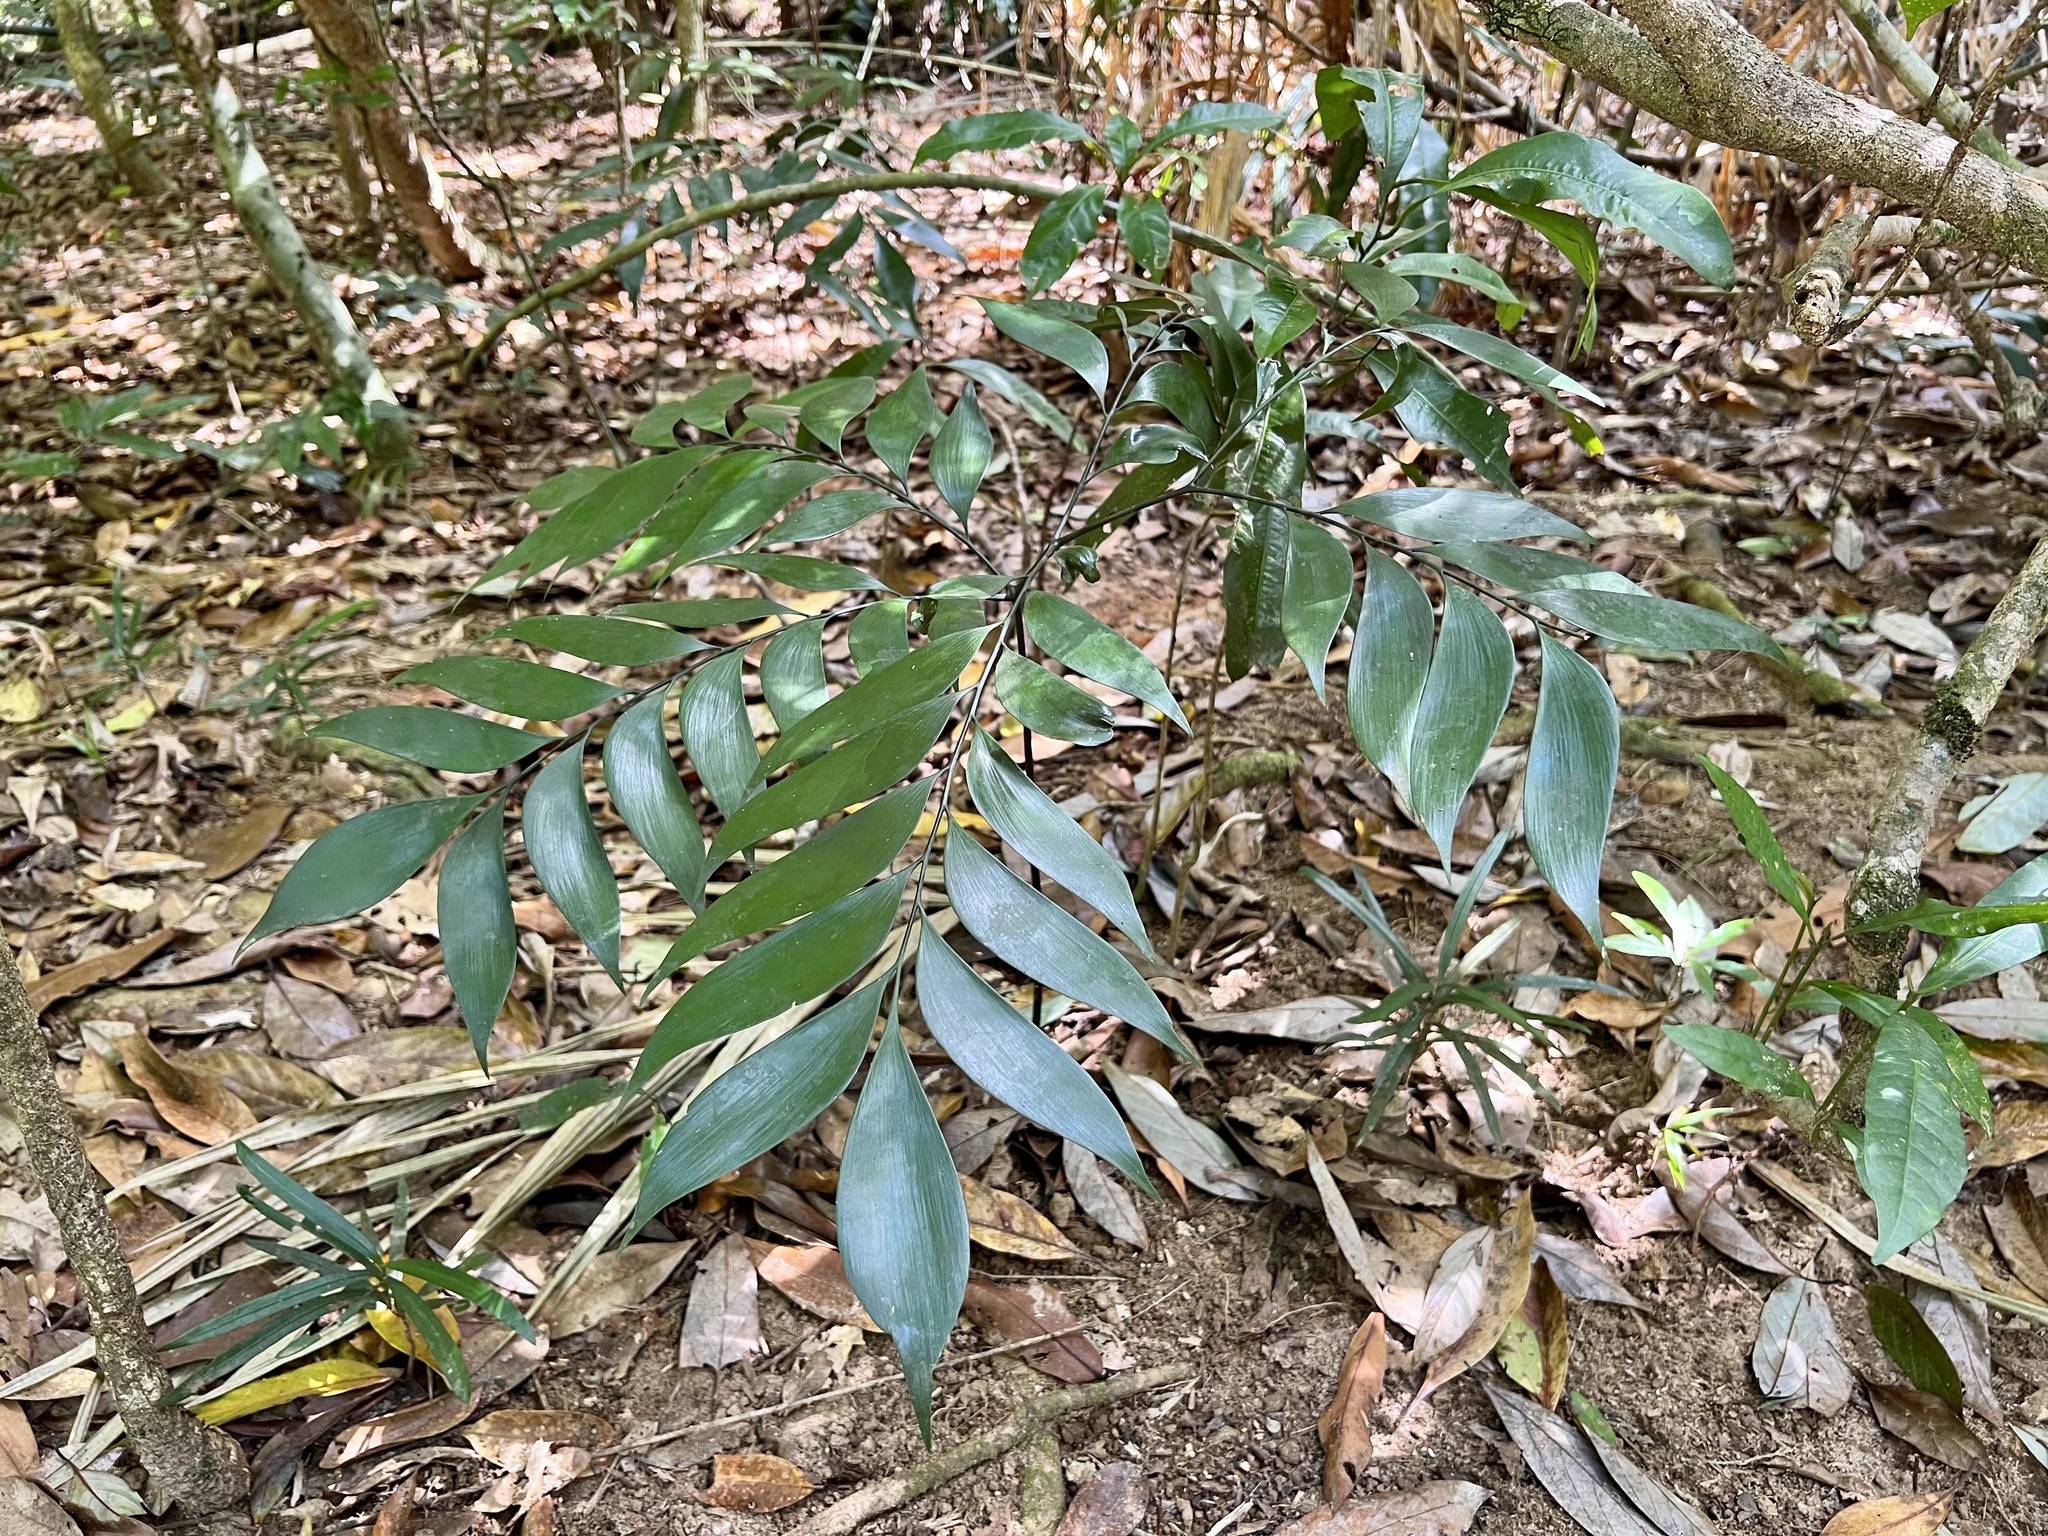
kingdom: Plantae
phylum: Tracheophyta
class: Cycadopsida
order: Cycadales
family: Zamiaceae
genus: Bowenia
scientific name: Bowenia spectabilis
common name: Zamia-fern
